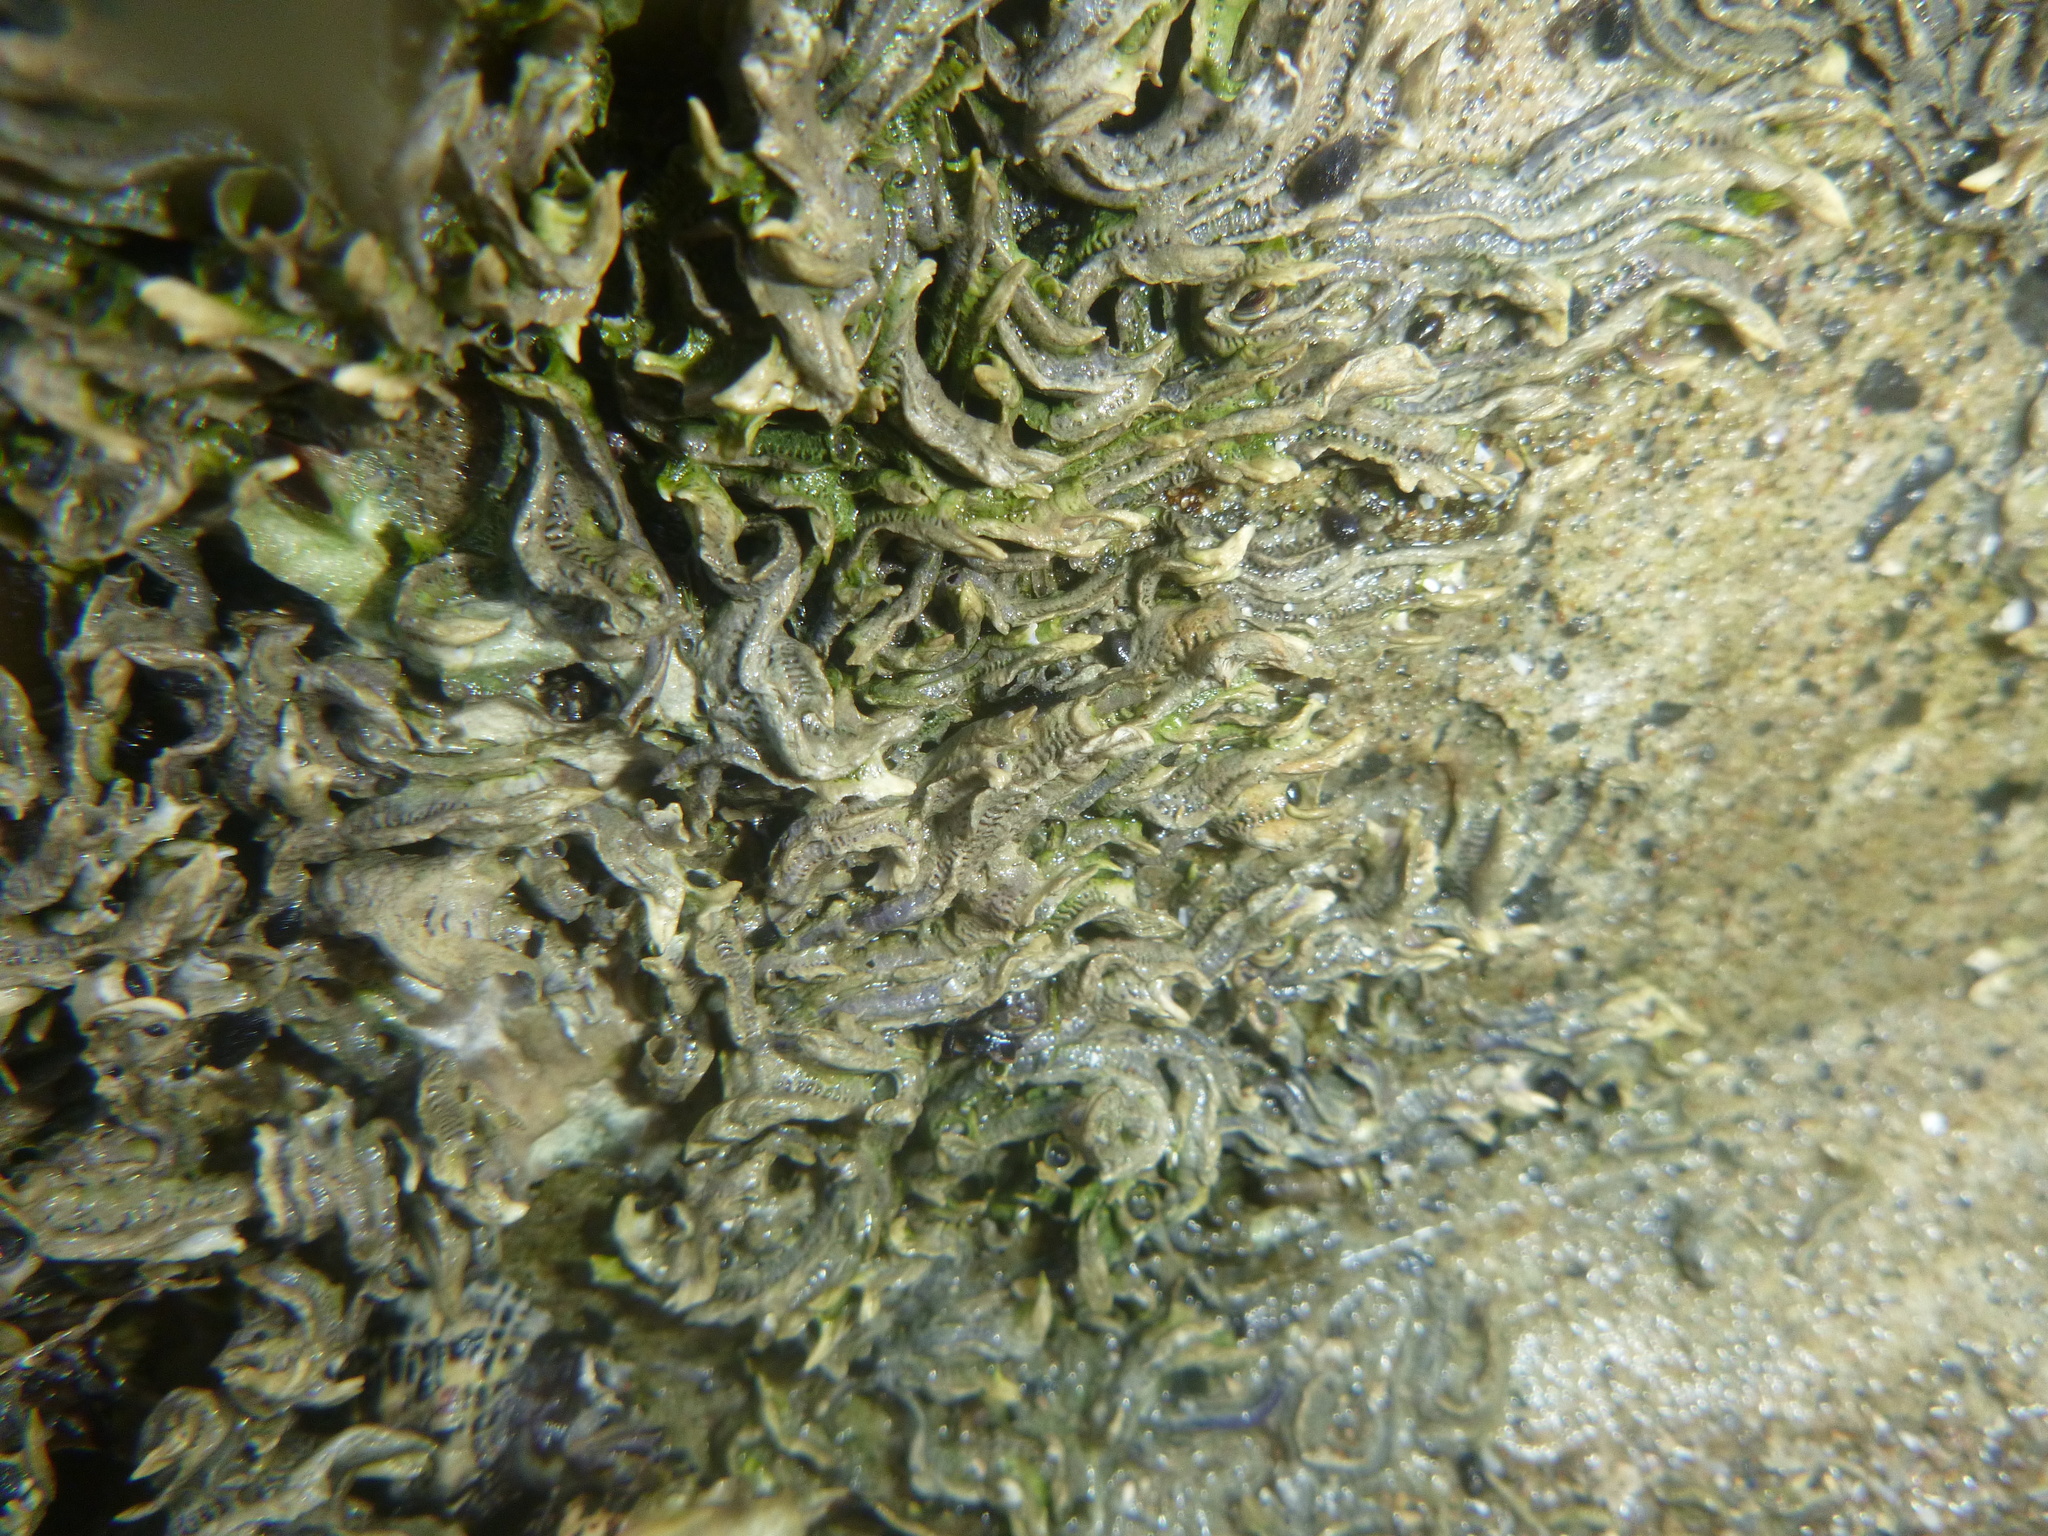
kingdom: Animalia
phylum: Annelida
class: Polychaeta
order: Sabellida
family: Serpulidae
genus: Spirobranchus
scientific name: Spirobranchus cariniferus
